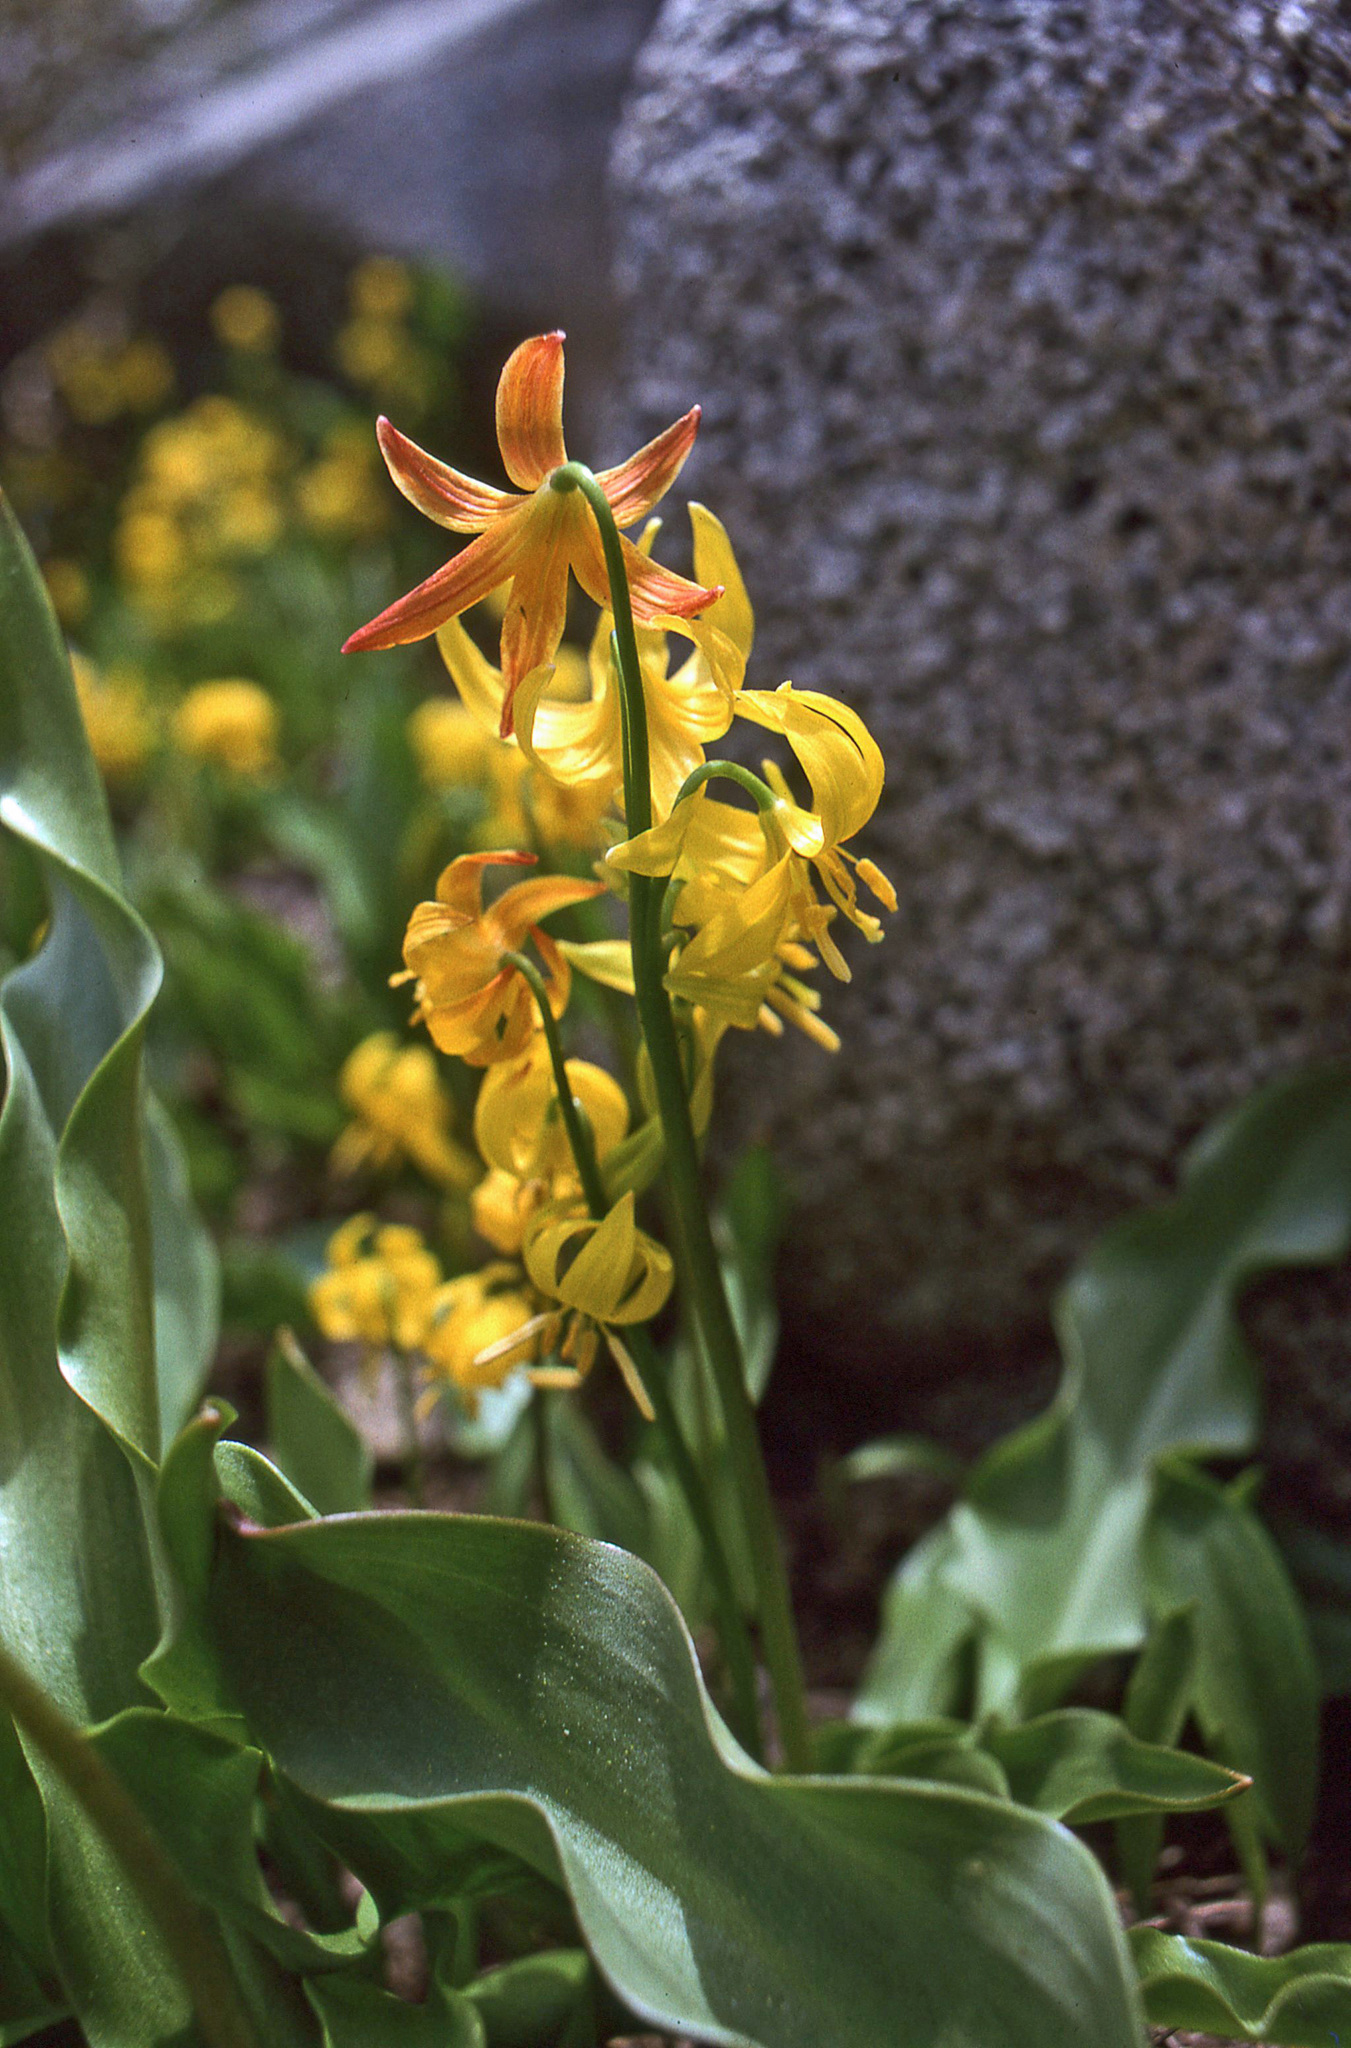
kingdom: Plantae
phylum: Tracheophyta
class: Liliopsida
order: Liliales
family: Liliaceae
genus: Erythronium
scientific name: Erythronium pluriflorum
